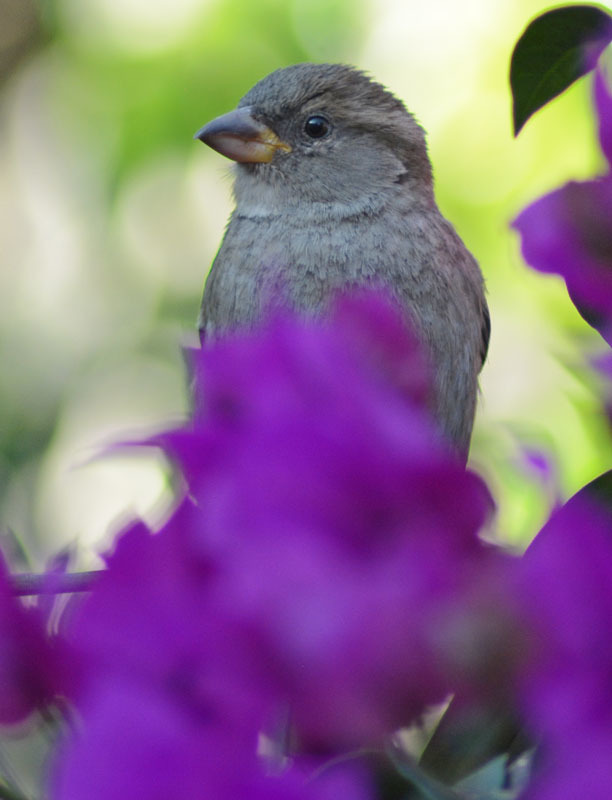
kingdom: Animalia
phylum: Chordata
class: Aves
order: Passeriformes
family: Passeridae
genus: Passer
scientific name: Passer domesticus
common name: House sparrow
